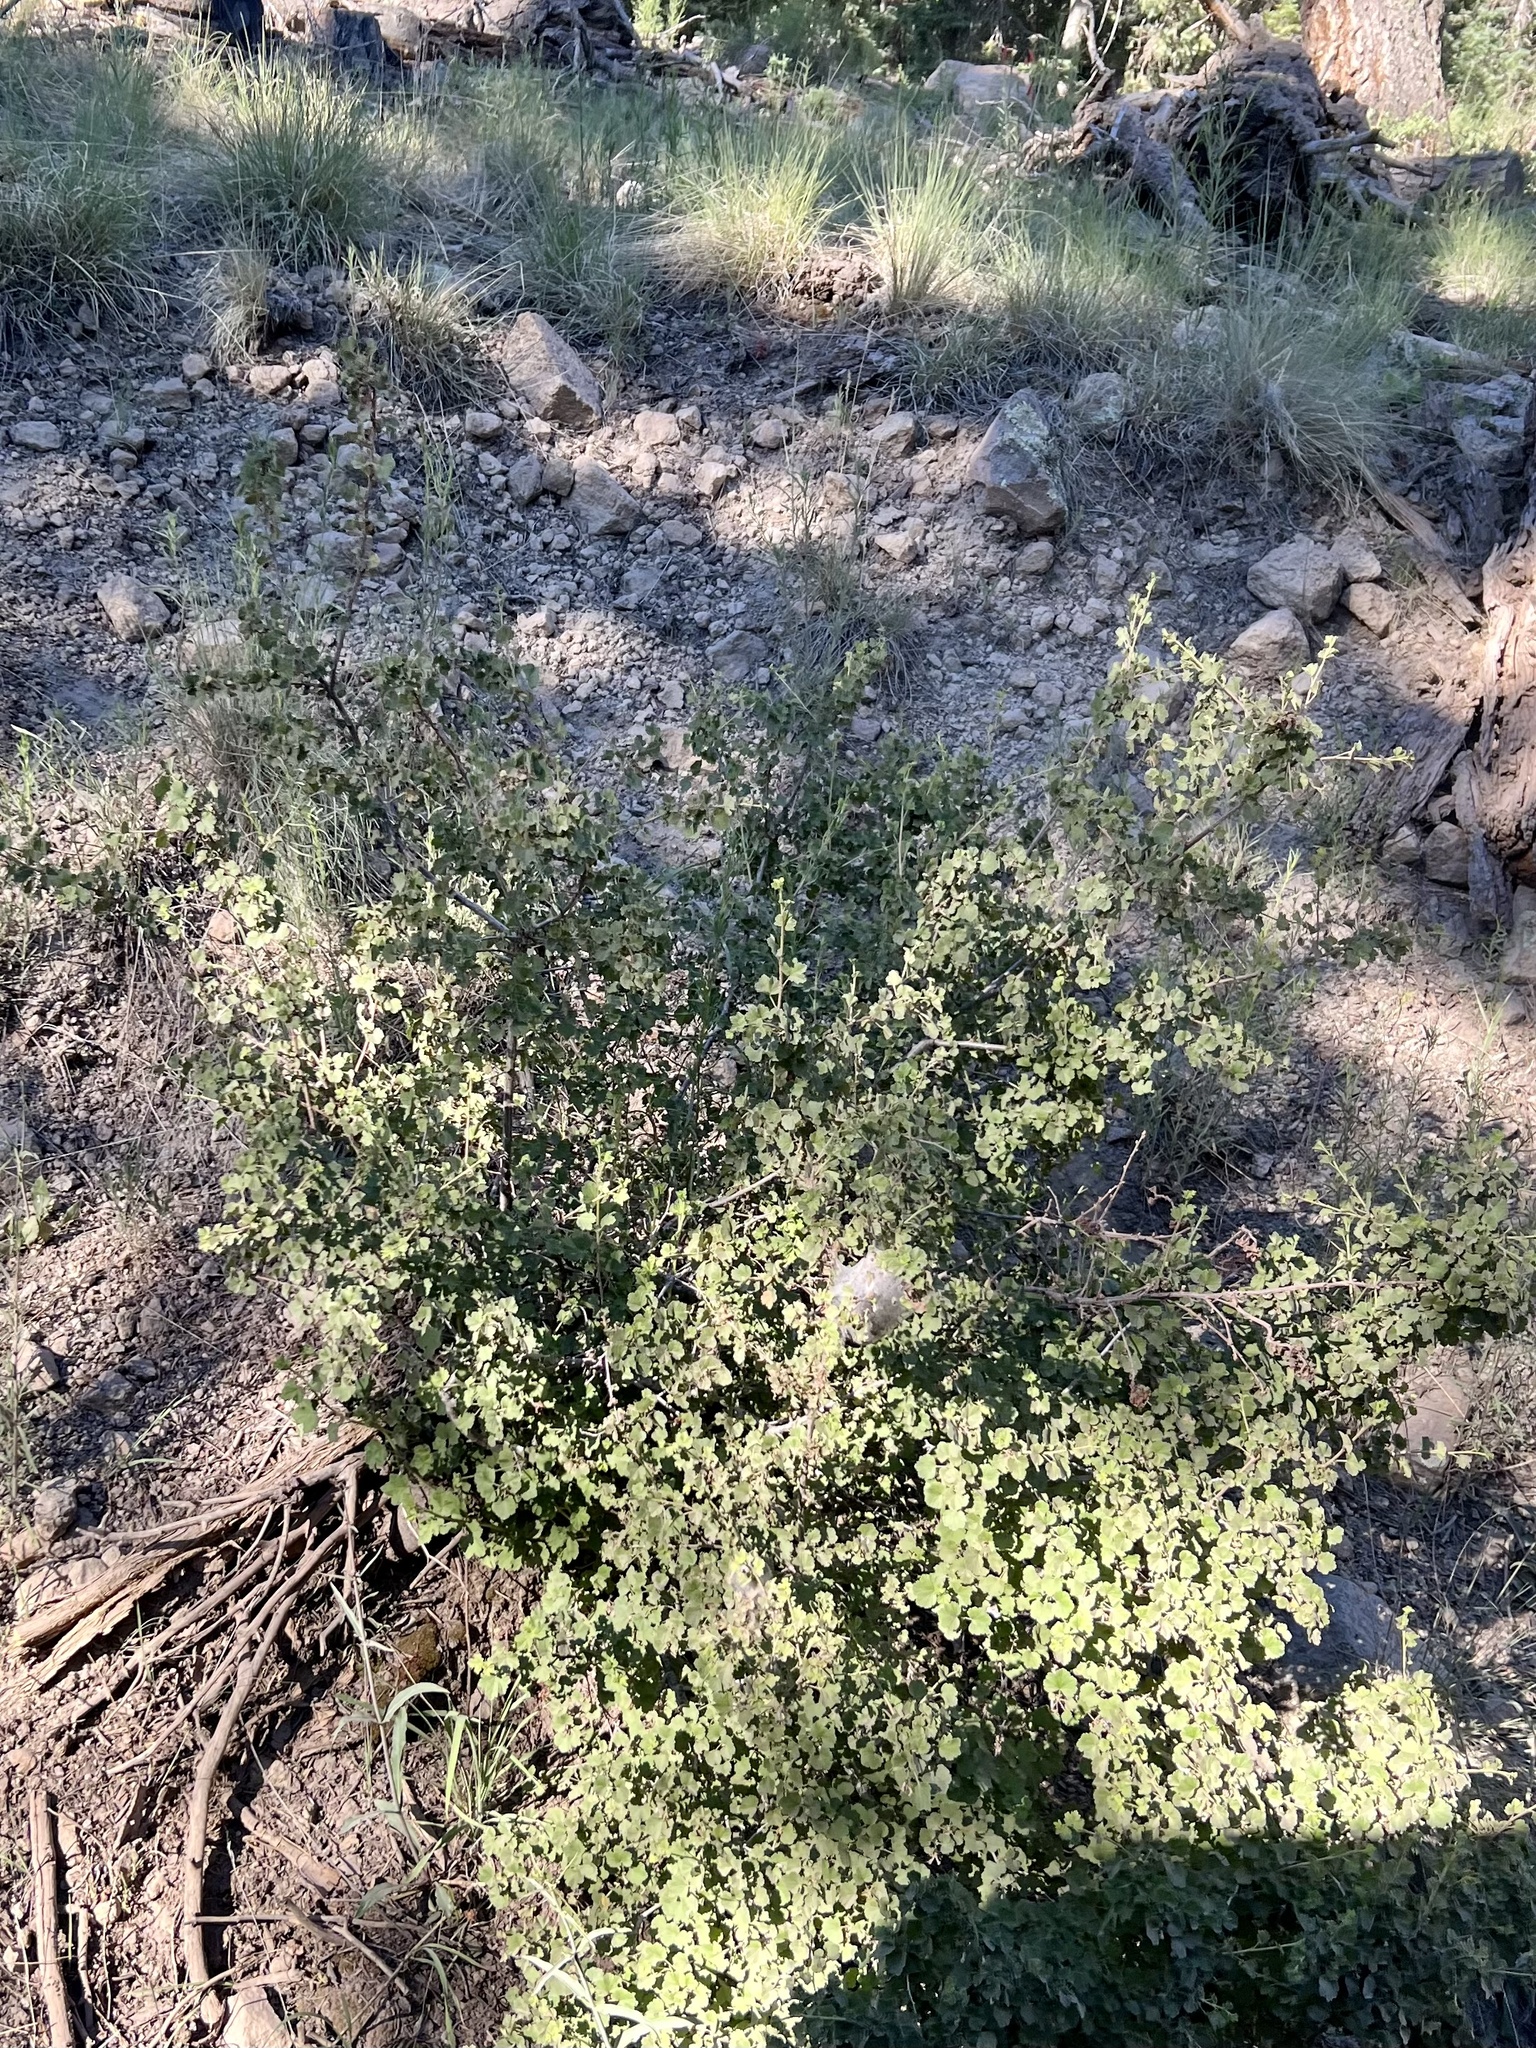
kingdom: Plantae
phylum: Tracheophyta
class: Magnoliopsida
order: Saxifragales
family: Grossulariaceae
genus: Ribes
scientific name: Ribes cereum
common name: Wax currant
